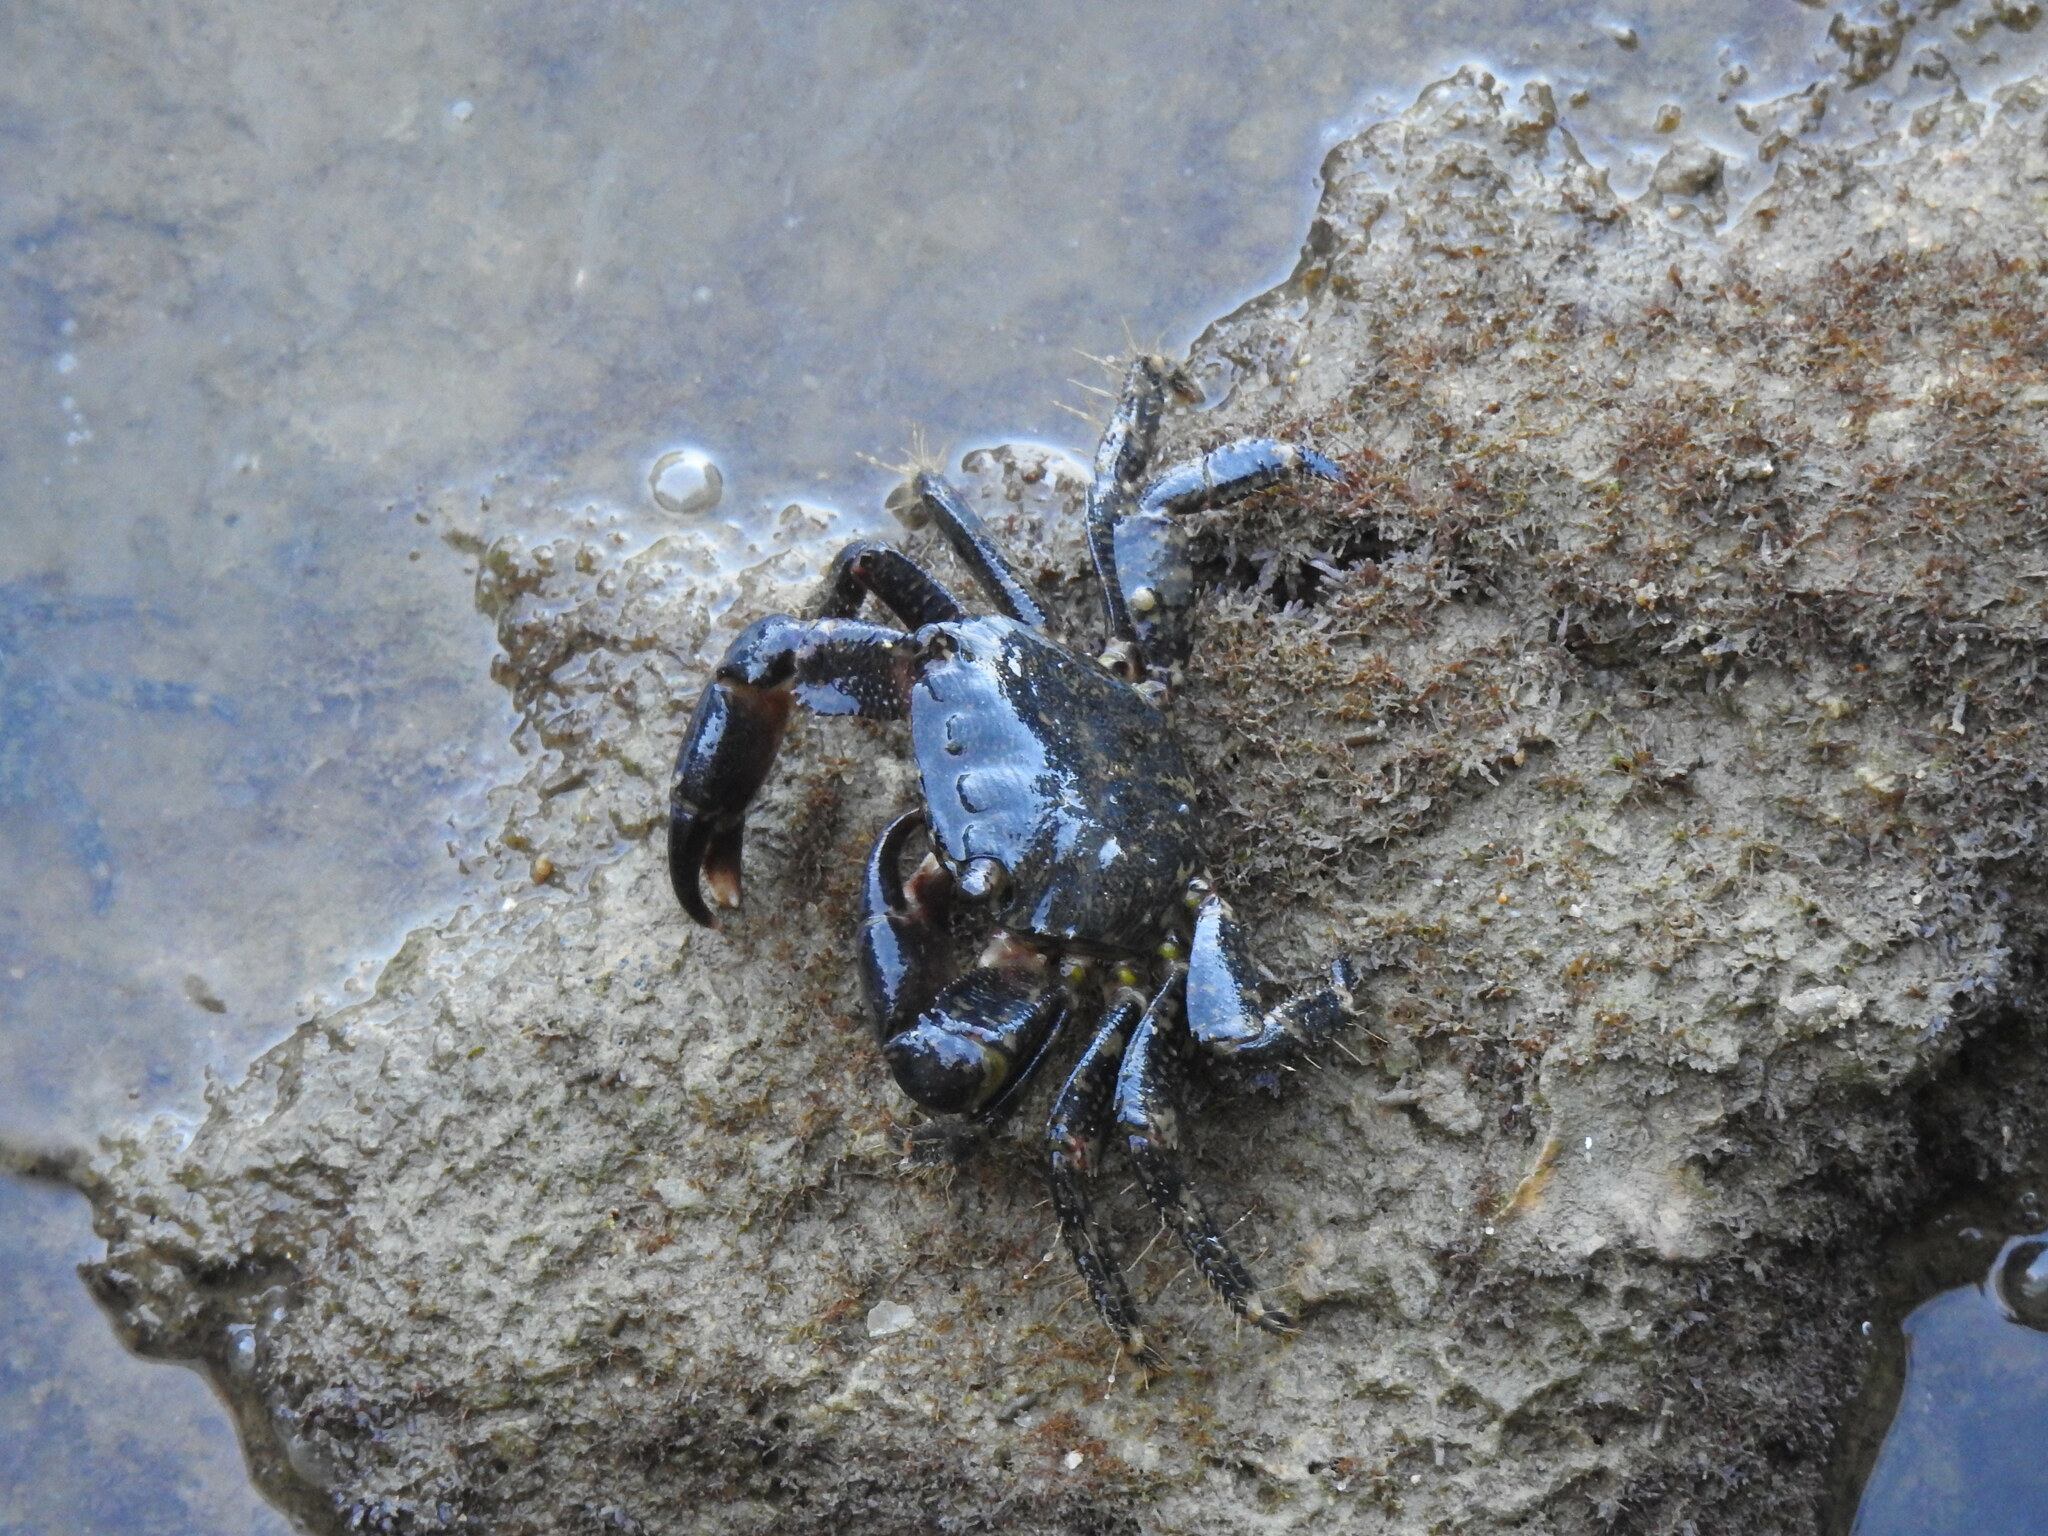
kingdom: Animalia
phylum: Arthropoda
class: Malacostraca
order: Decapoda
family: Grapsidae
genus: Pachygrapsus
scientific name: Pachygrapsus marmoratus
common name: Marbled rock crab
